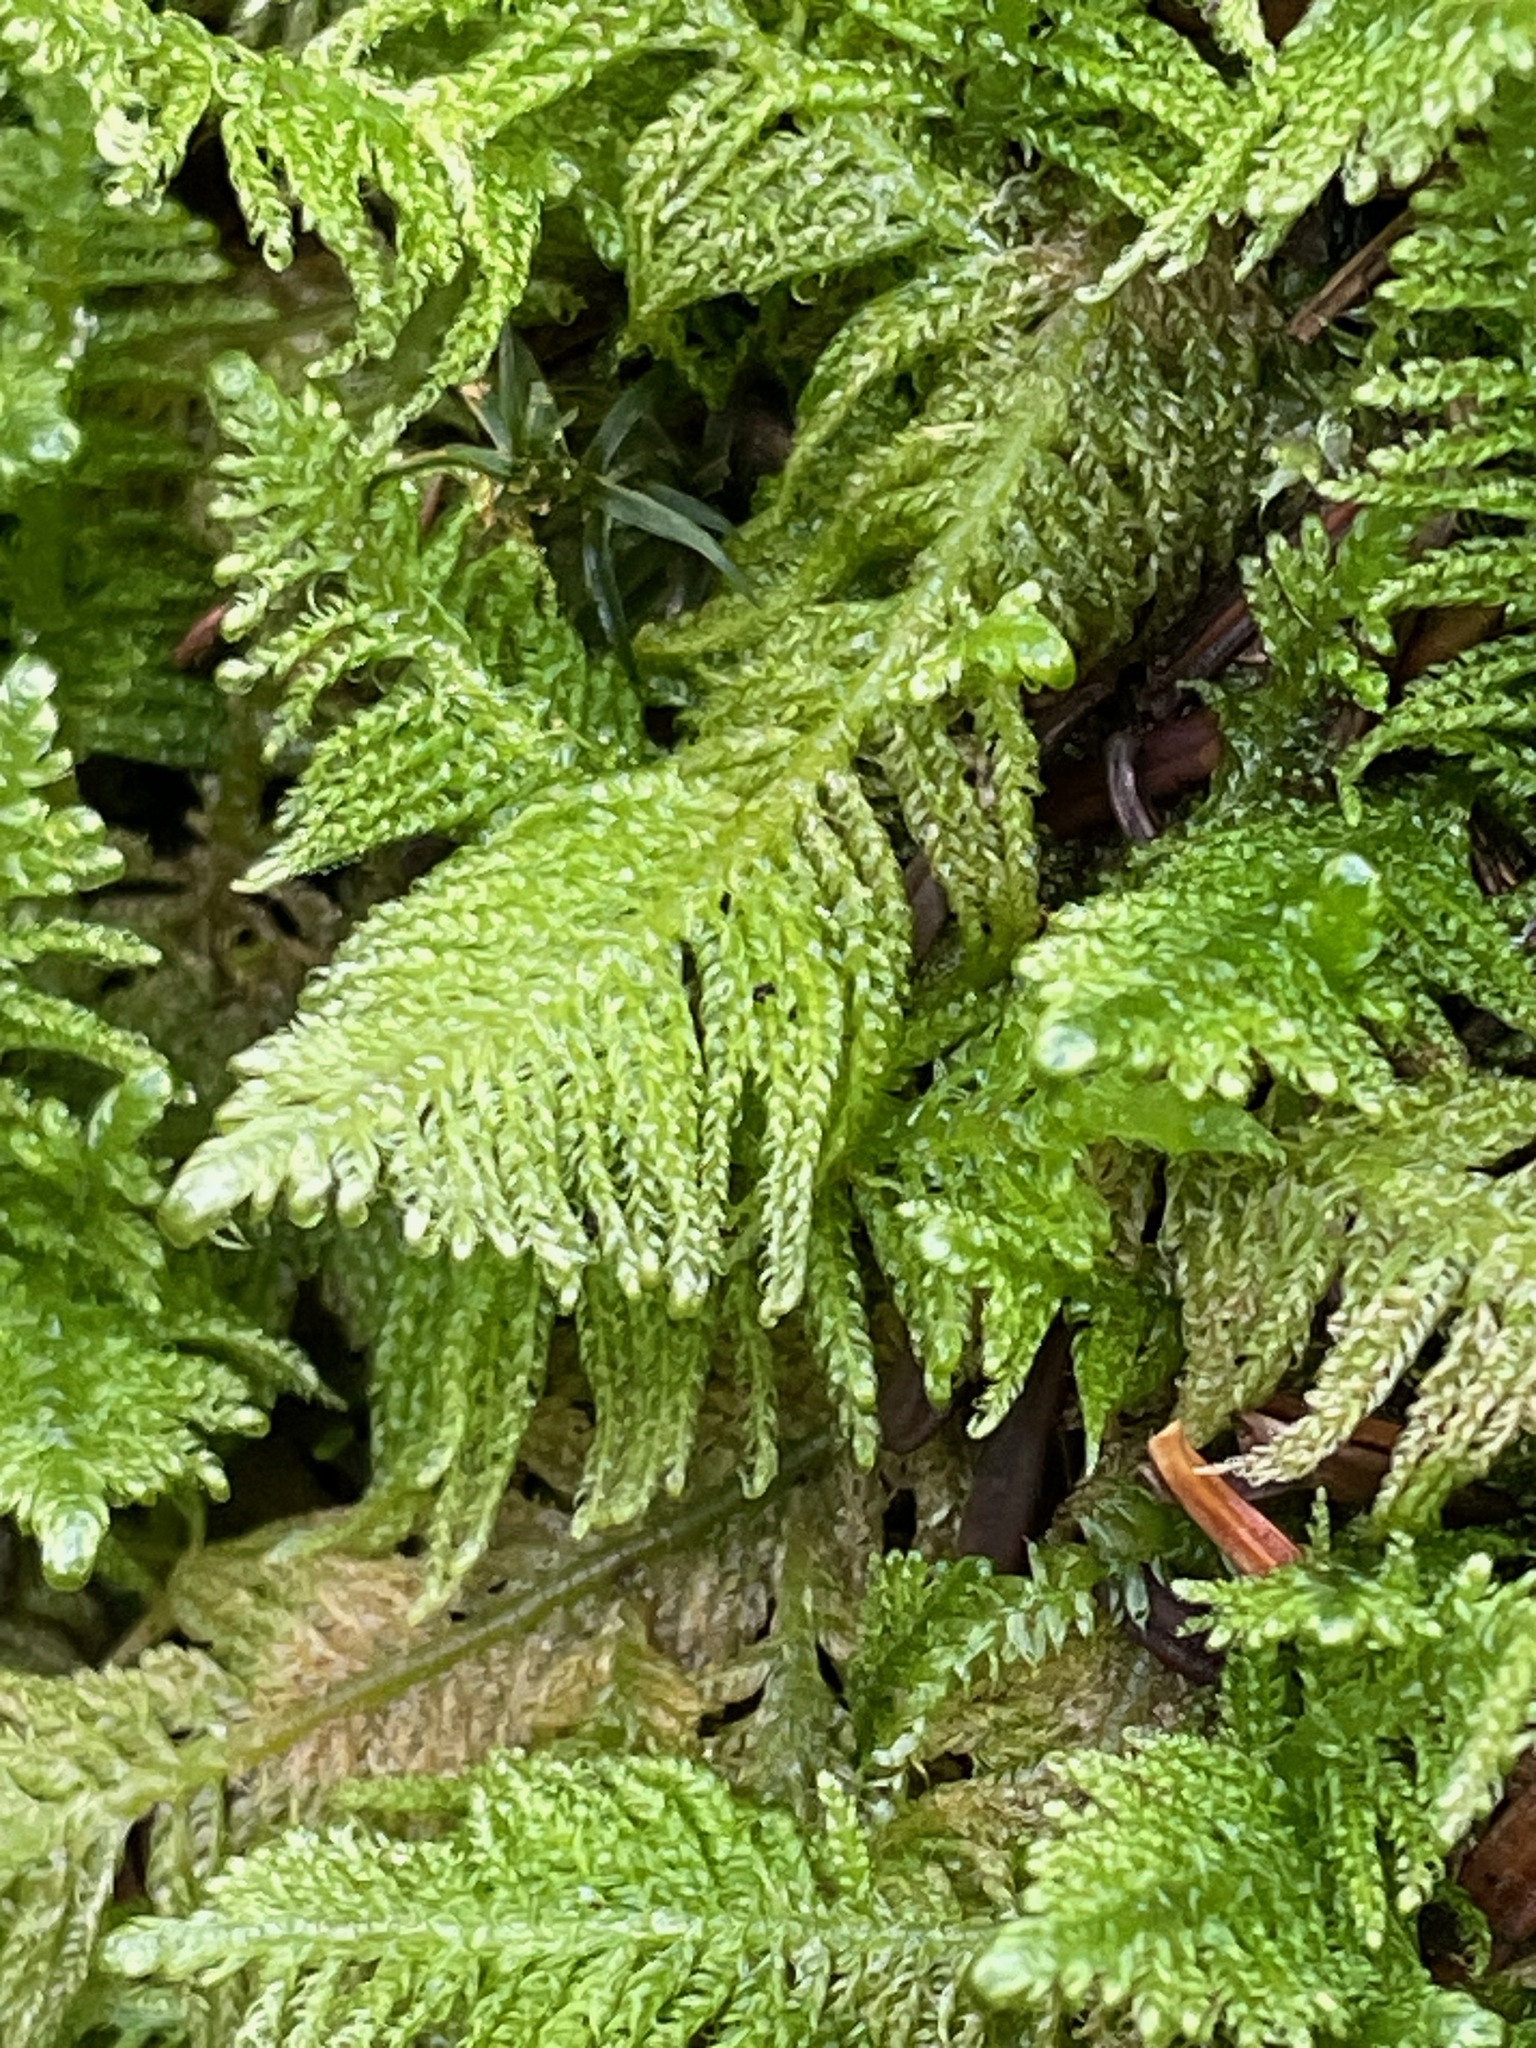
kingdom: Plantae
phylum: Bryophyta
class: Bryopsida
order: Hypnales
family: Pylaisiaceae
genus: Ptilium
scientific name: Ptilium crista-castrensis
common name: Knight's plume moss
